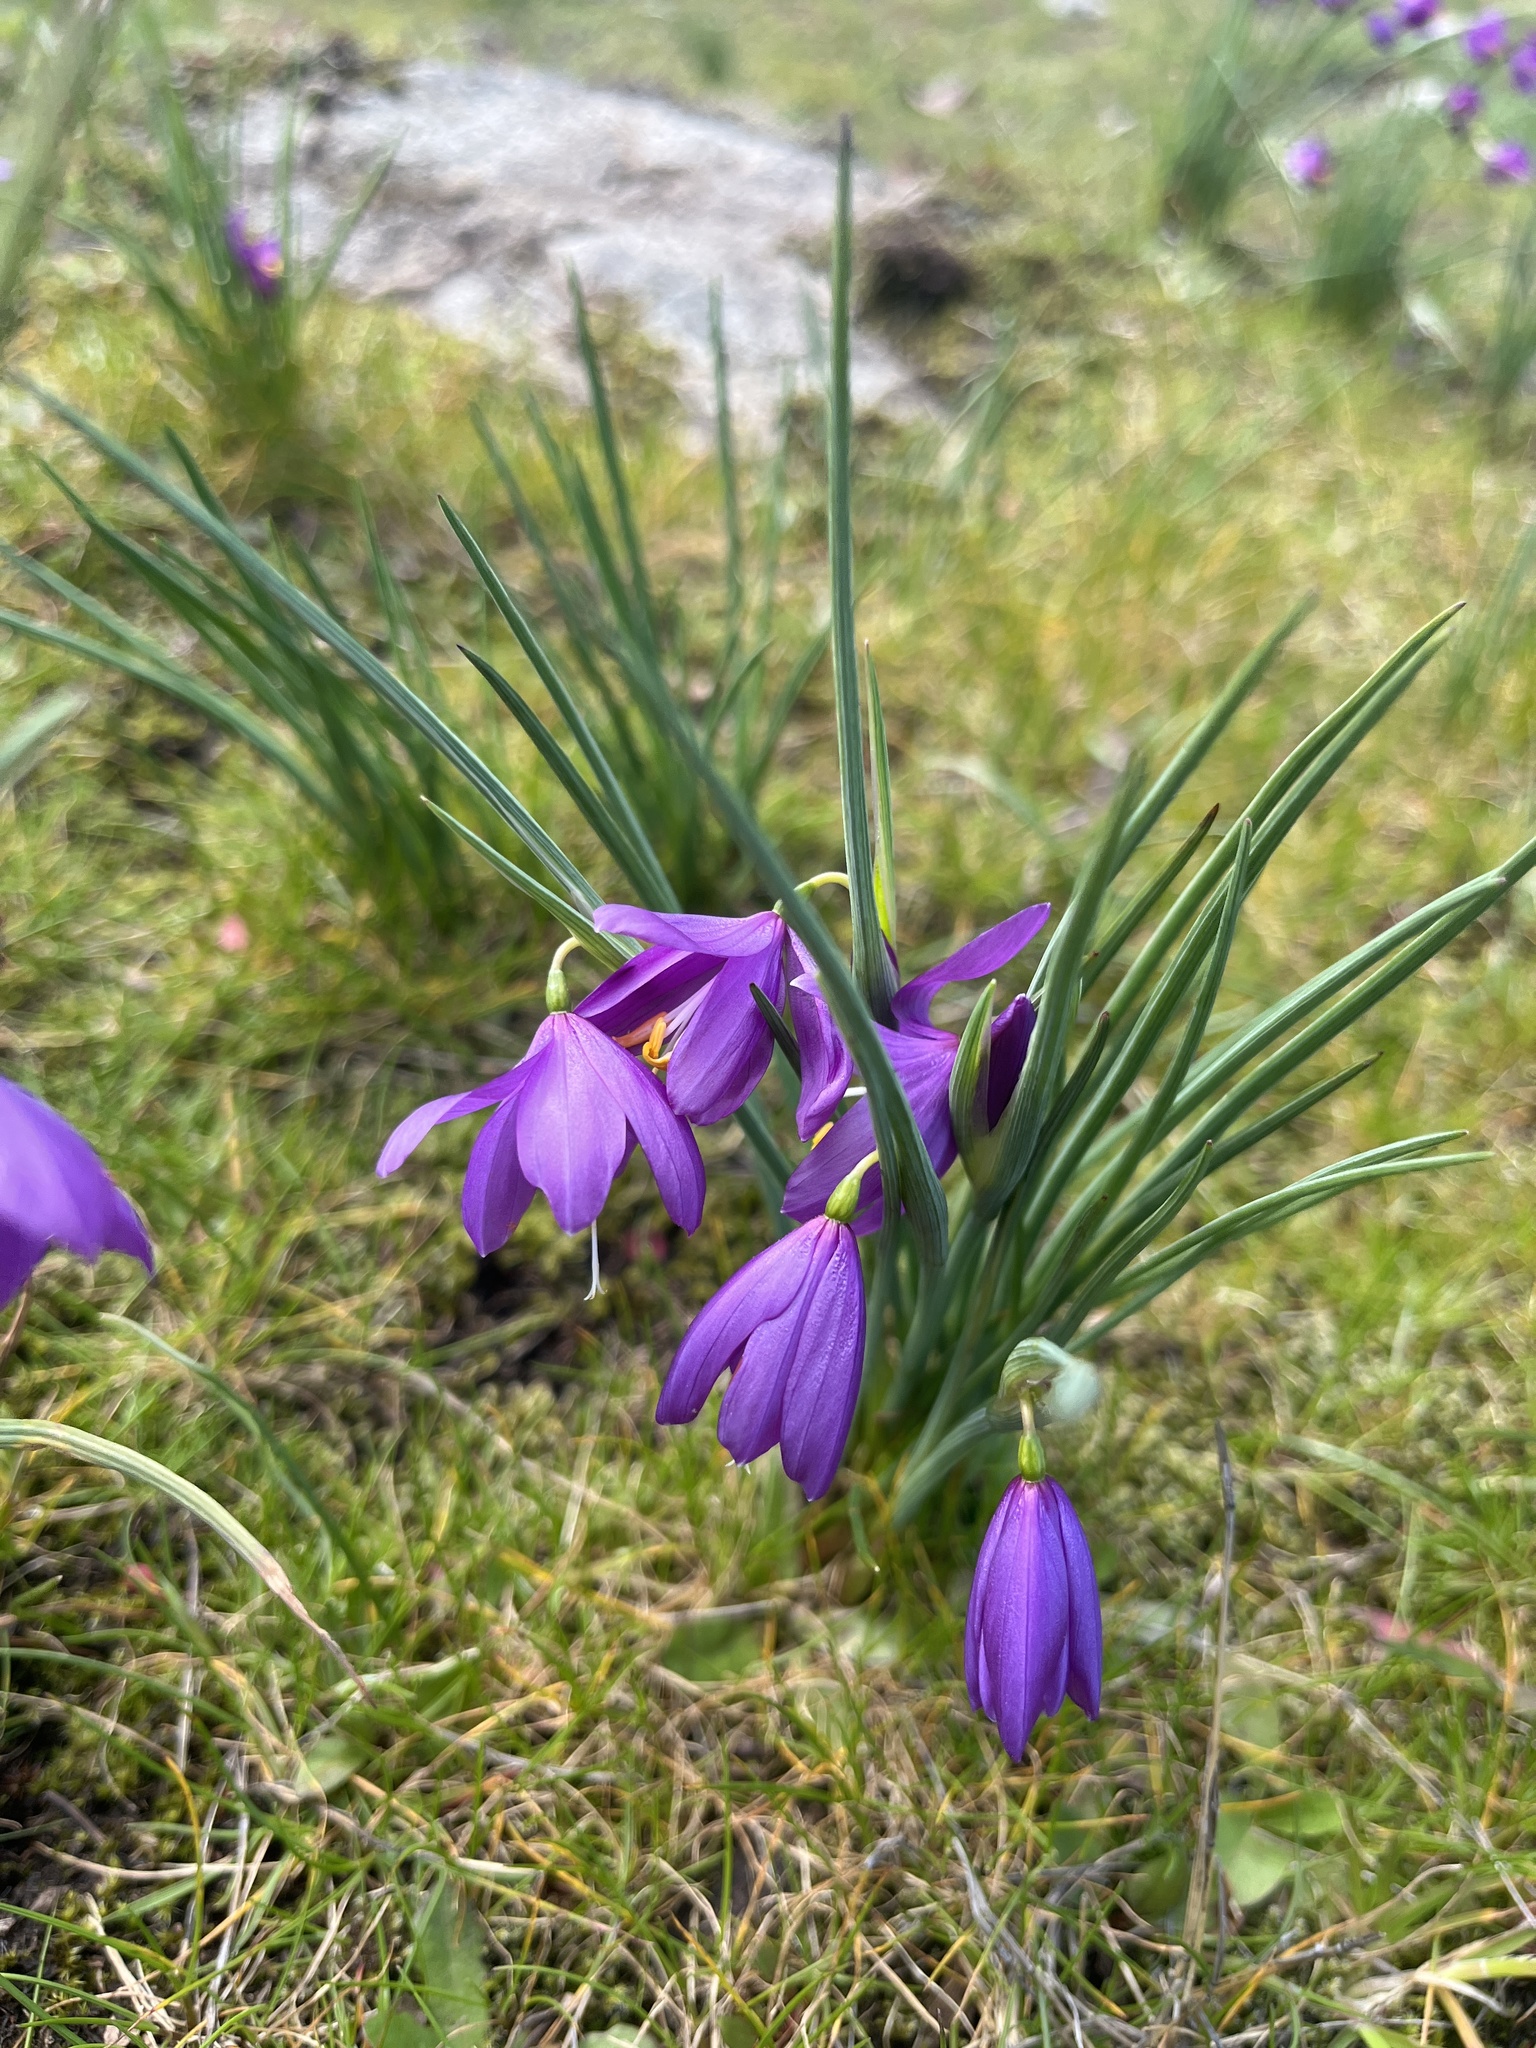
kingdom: Plantae
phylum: Tracheophyta
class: Liliopsida
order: Asparagales
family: Iridaceae
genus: Olsynium
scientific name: Olsynium douglasii
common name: Douglas' grasswidow
